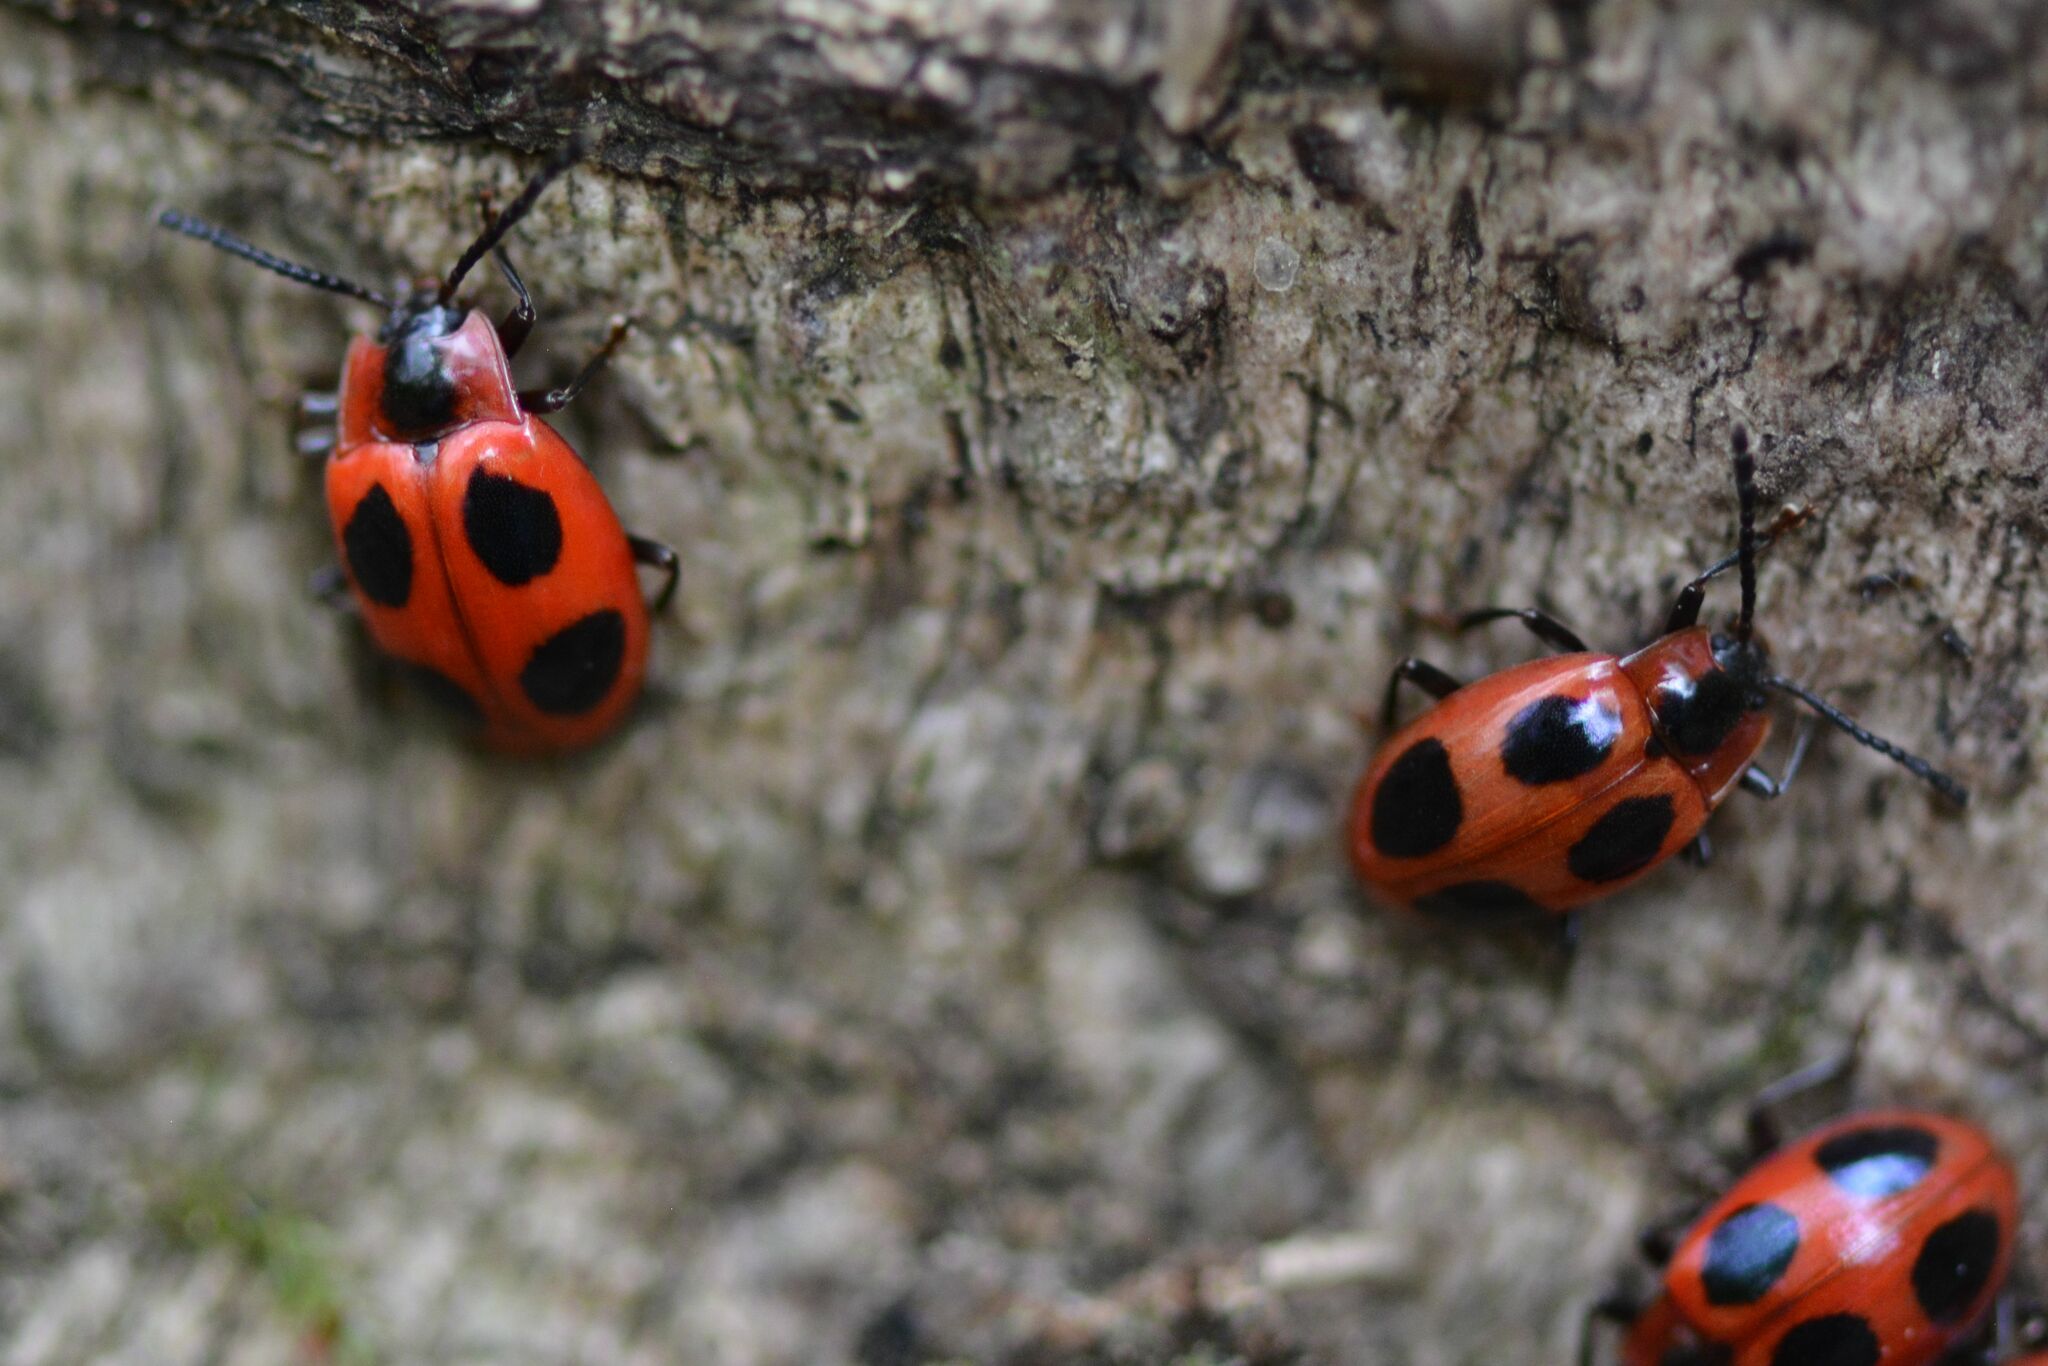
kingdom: Animalia
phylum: Arthropoda
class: Insecta
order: Coleoptera
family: Endomychidae
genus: Endomychus
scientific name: Endomychus coccineus
